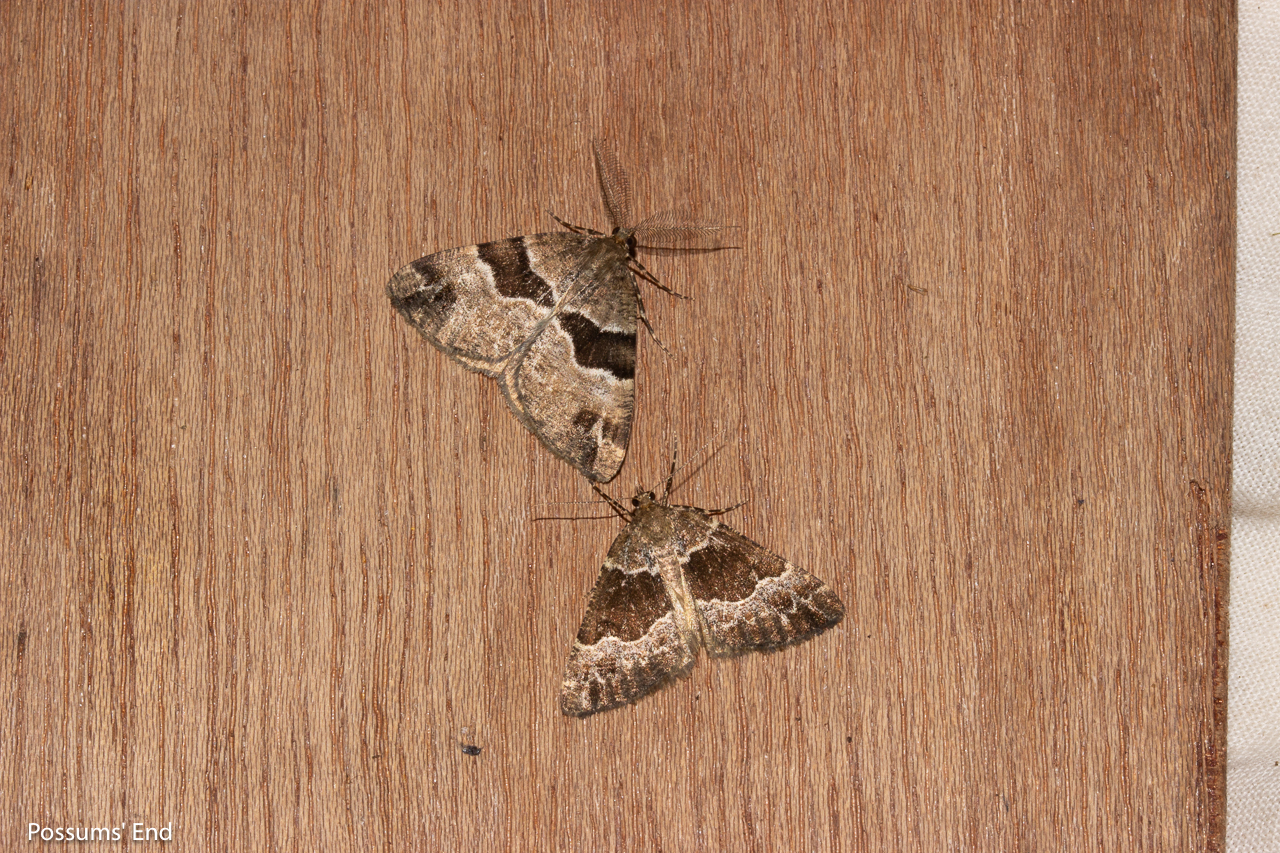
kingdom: Animalia
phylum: Arthropoda
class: Insecta
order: Lepidoptera
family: Geometridae
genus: Pseudocoremia
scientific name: Pseudocoremia
